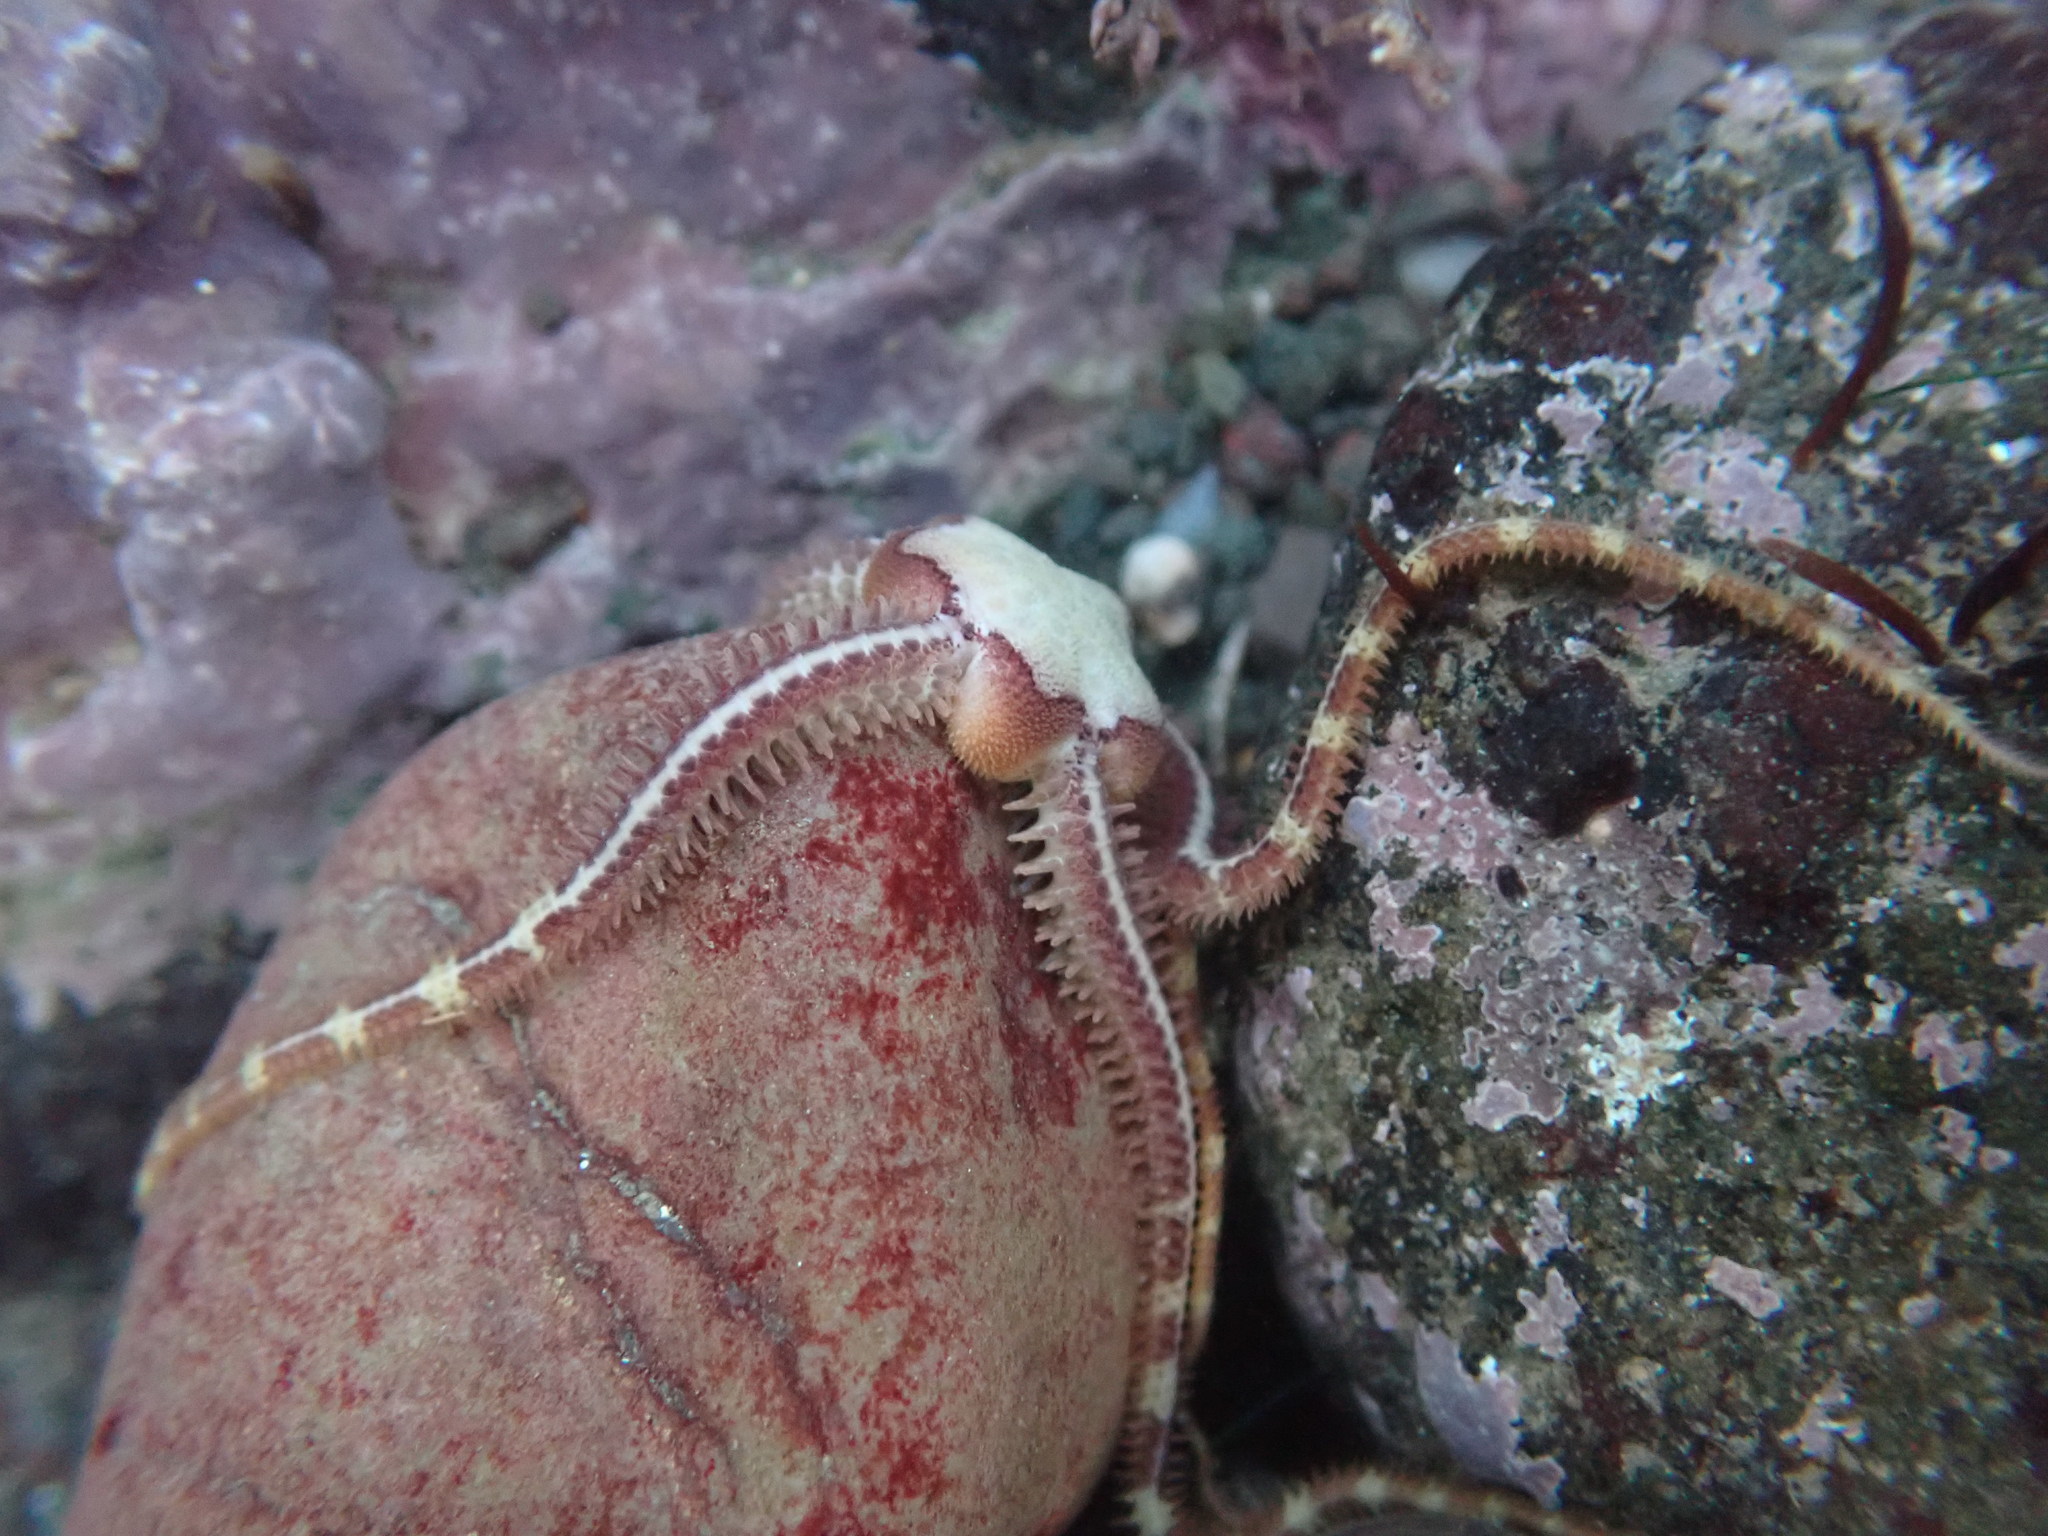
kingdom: Animalia
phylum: Echinodermata
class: Ophiuroidea
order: Amphilepidida
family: Ophiopholidae
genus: Ophiopholis
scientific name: Ophiopholis aculeata
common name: Crevice brittlestar
